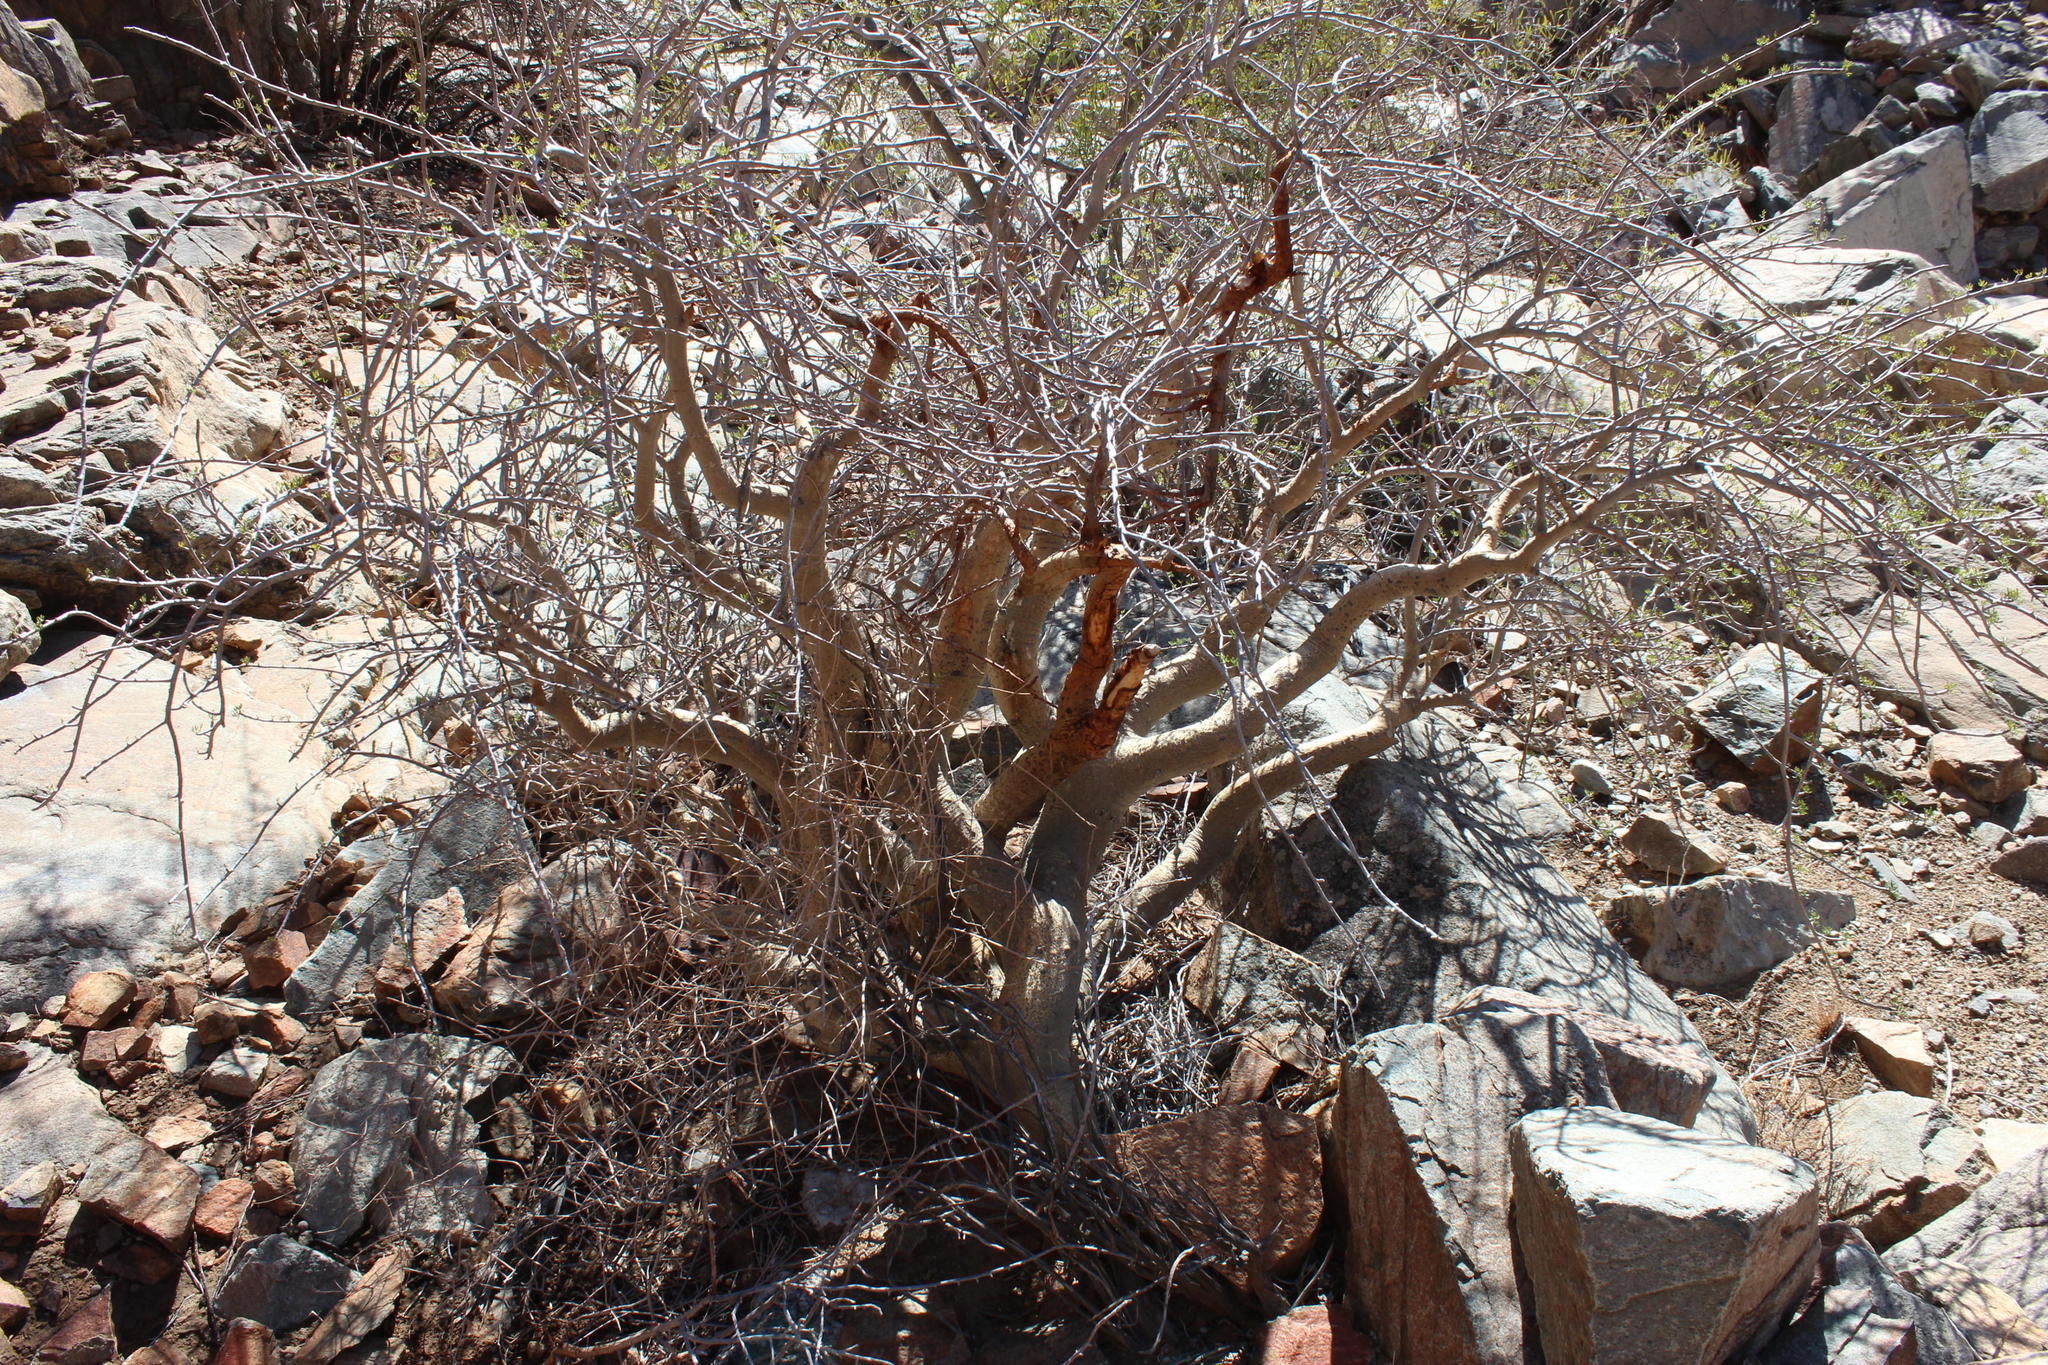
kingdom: Plantae
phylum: Tracheophyta
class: Magnoliopsida
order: Sapindales
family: Burseraceae
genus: Commiphora
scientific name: Commiphora cervifolia
